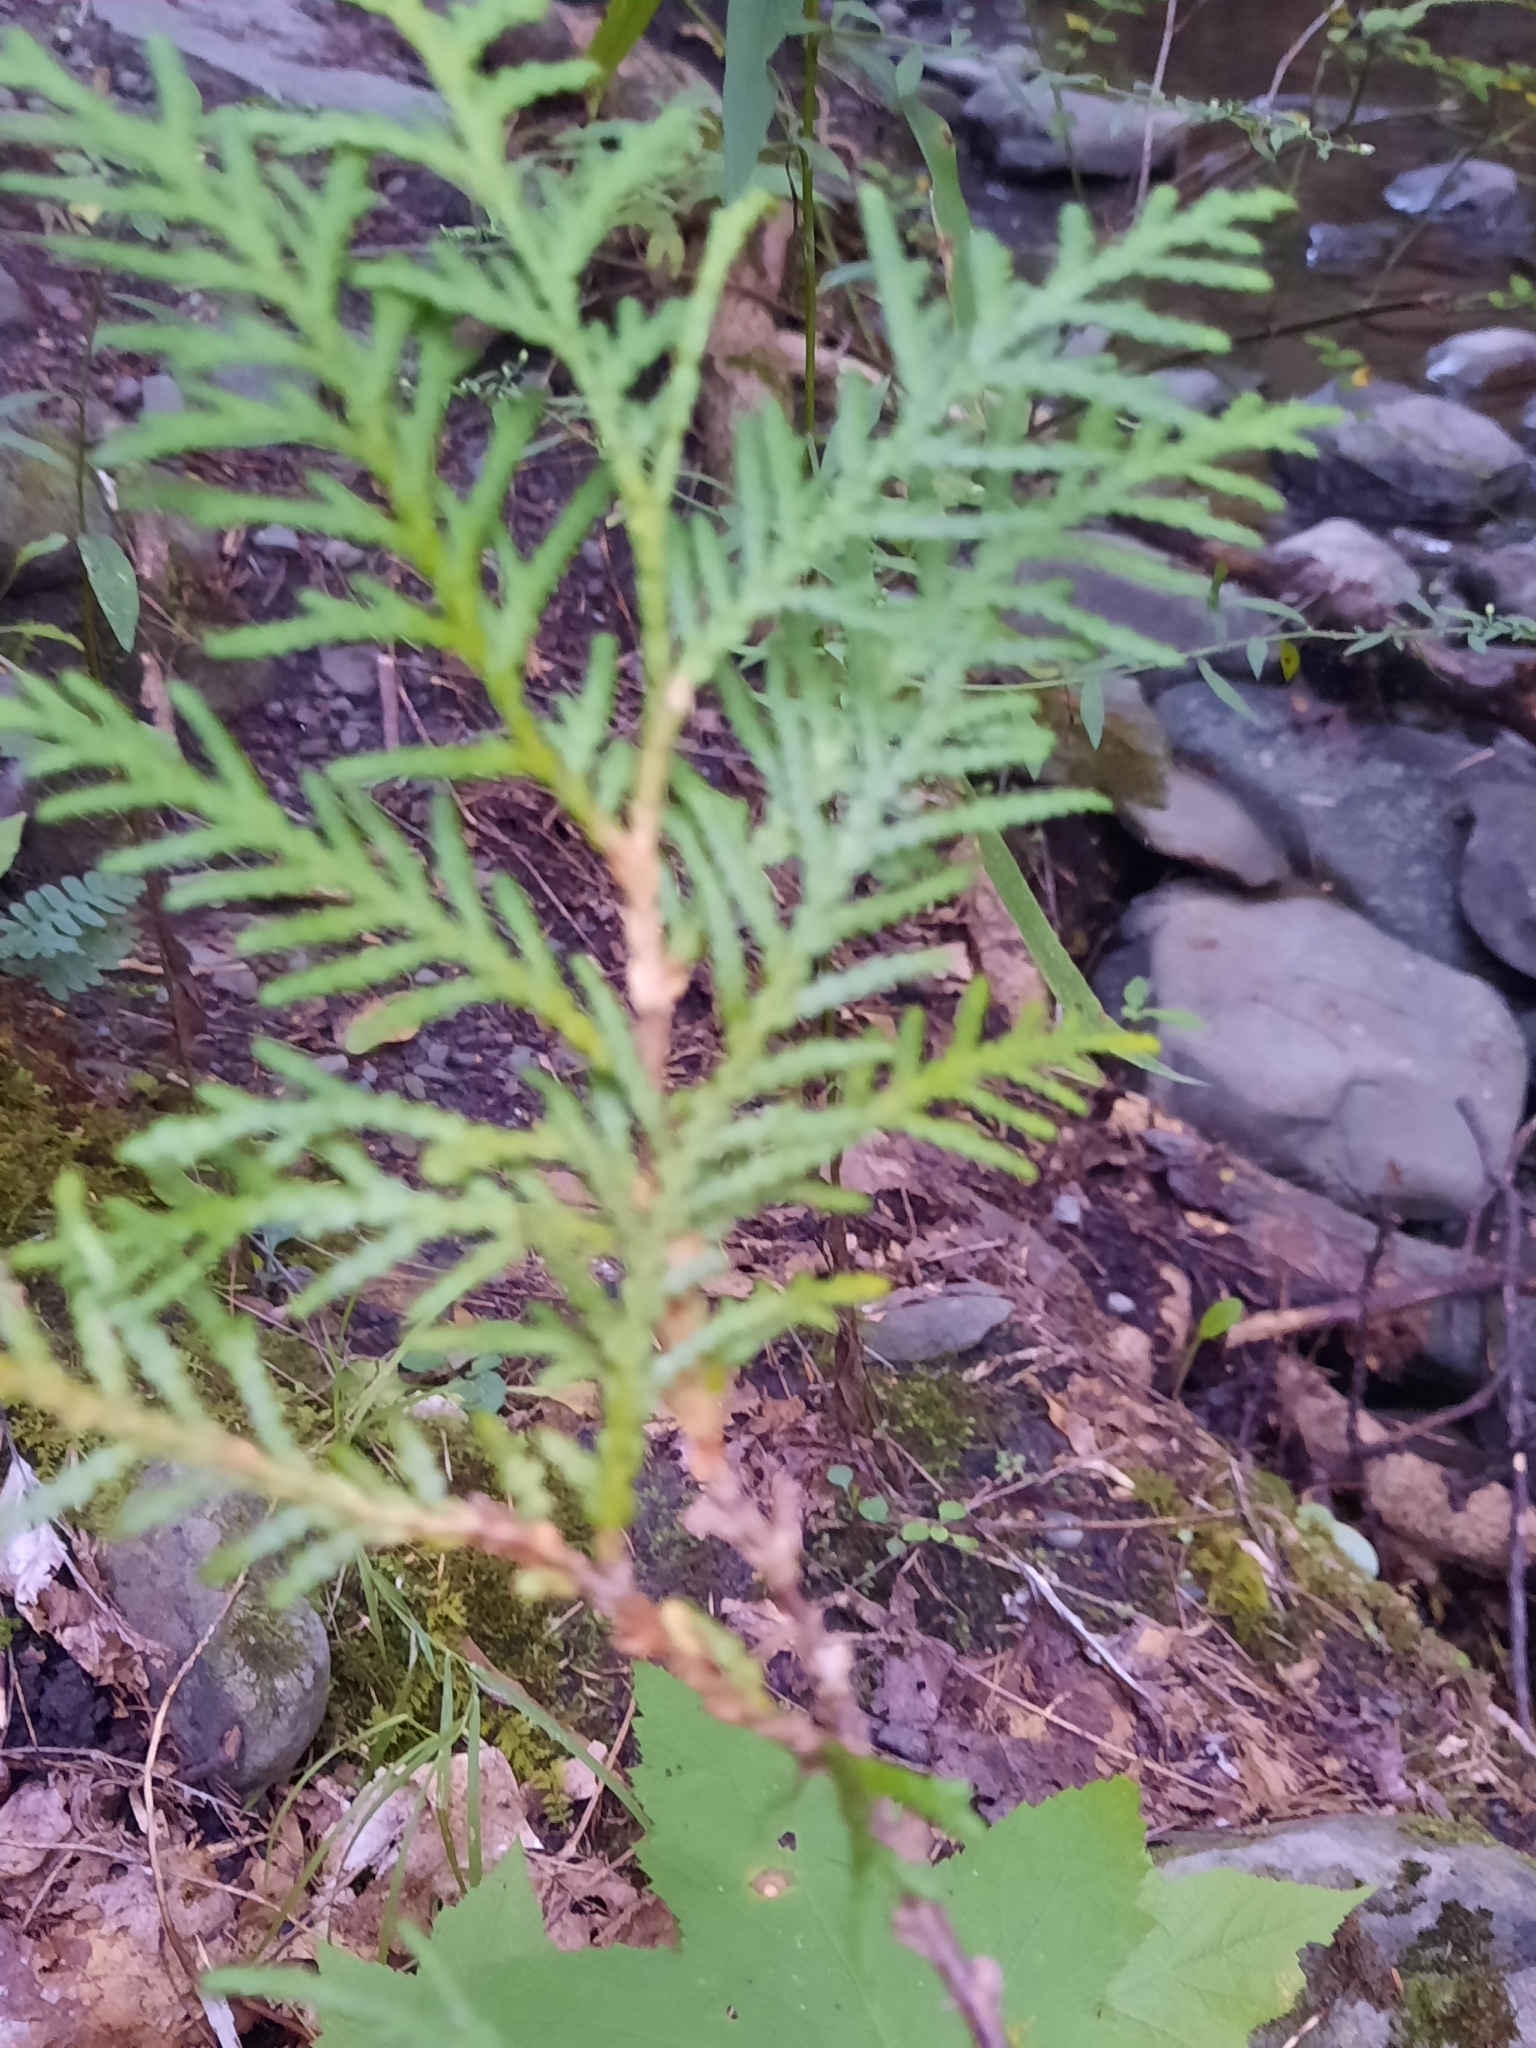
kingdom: Plantae
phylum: Tracheophyta
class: Pinopsida
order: Pinales
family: Cupressaceae
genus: Thuja
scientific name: Thuja occidentalis
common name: Northern white-cedar
